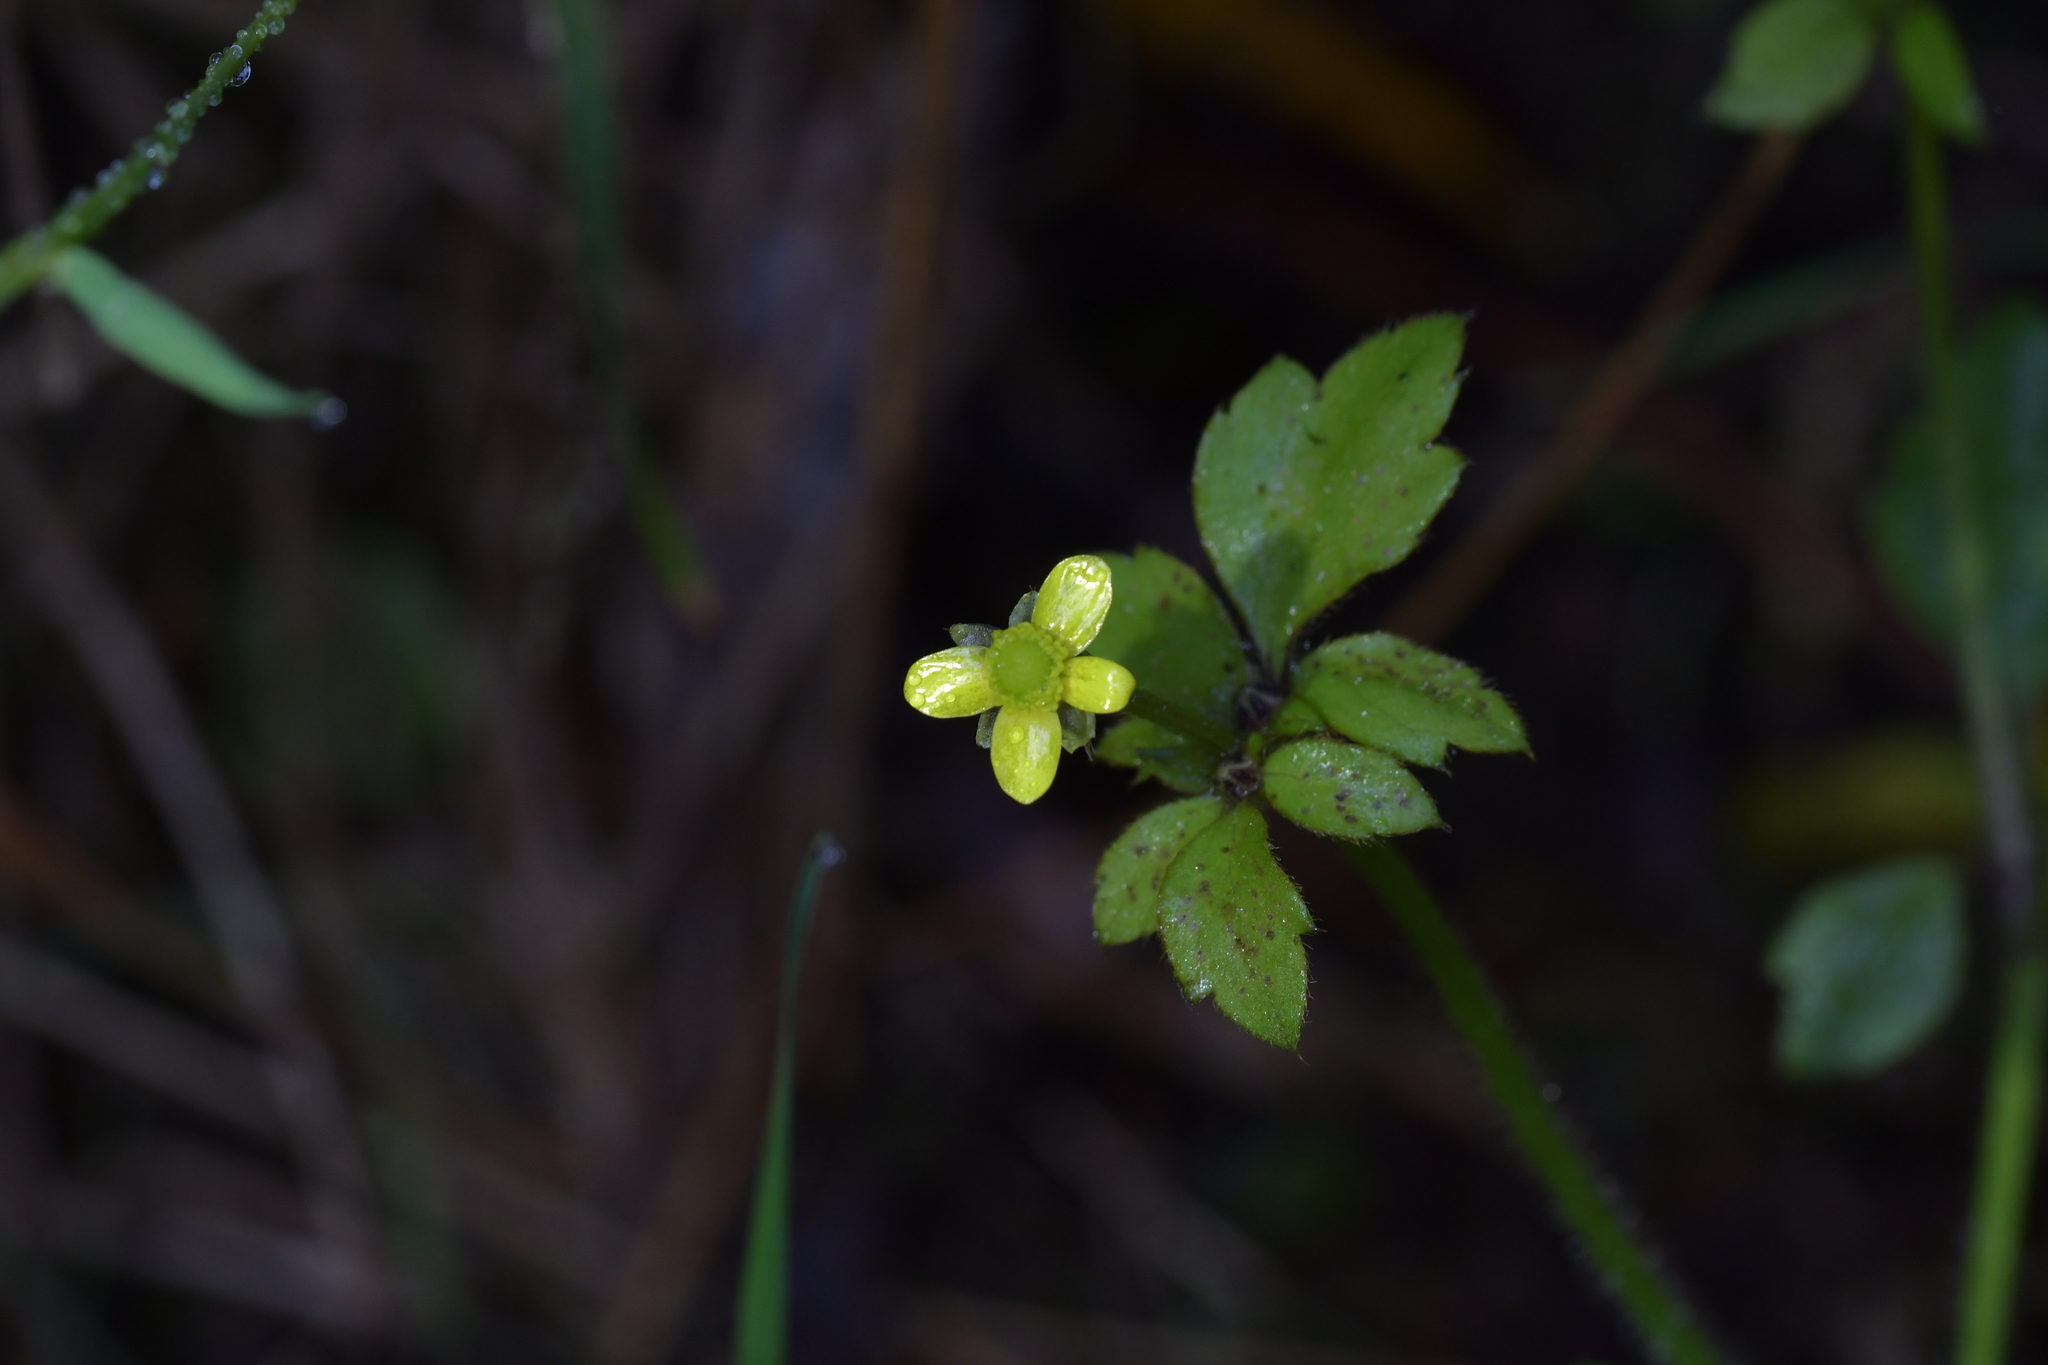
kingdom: Plantae
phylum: Tracheophyta
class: Magnoliopsida
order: Ranunculales
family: Ranunculaceae
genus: Ranunculus
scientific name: Ranunculus reflexus
